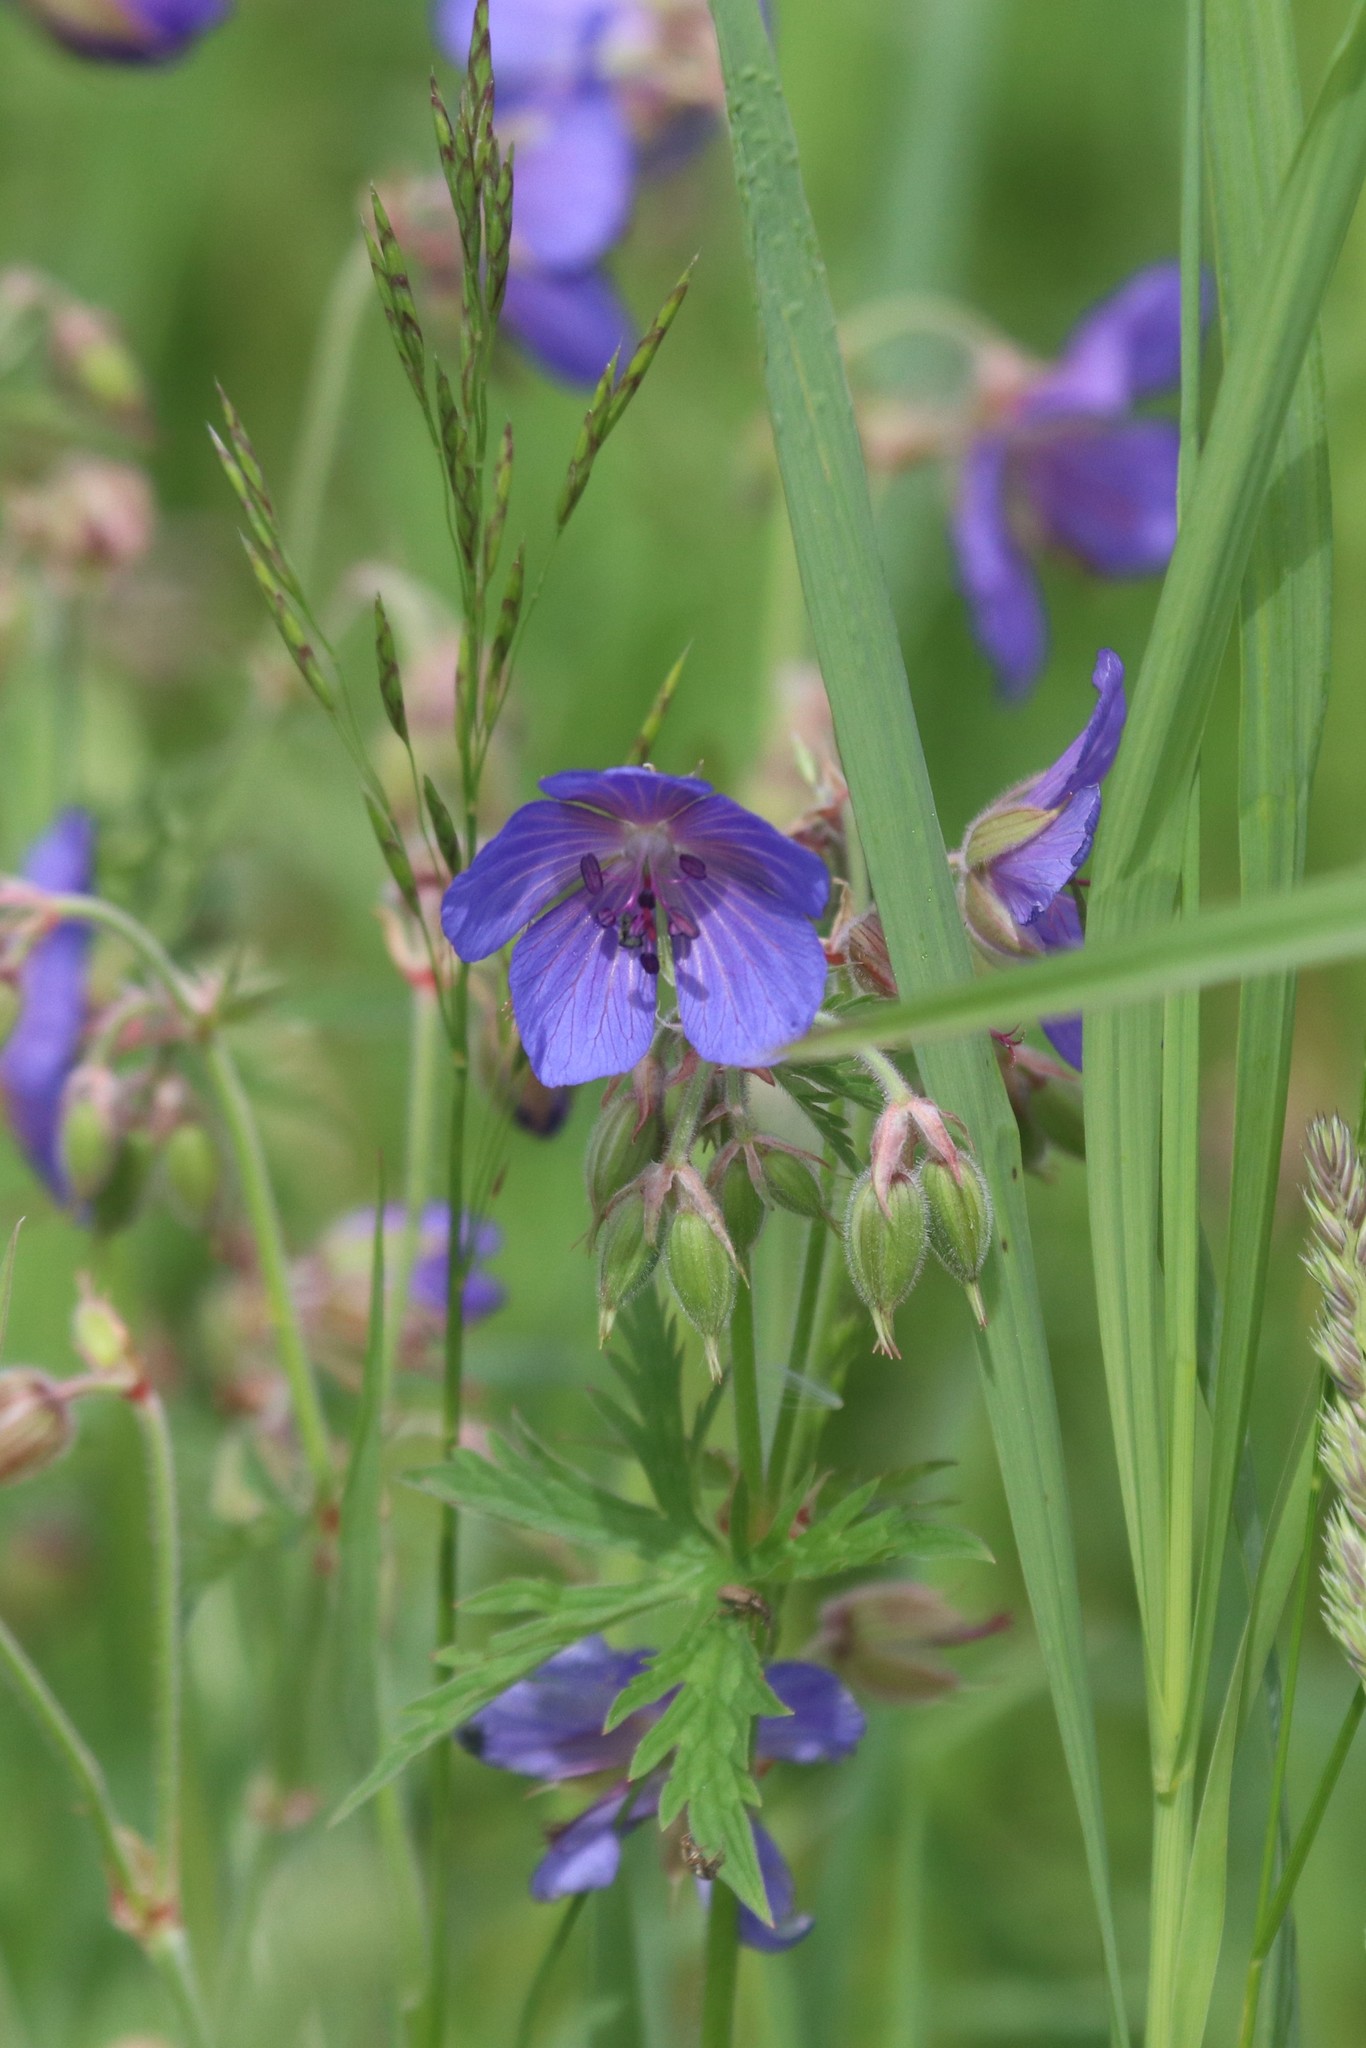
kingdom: Plantae
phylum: Tracheophyta
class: Magnoliopsida
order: Geraniales
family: Geraniaceae
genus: Geranium
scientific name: Geranium pratense
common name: Meadow crane's-bill
